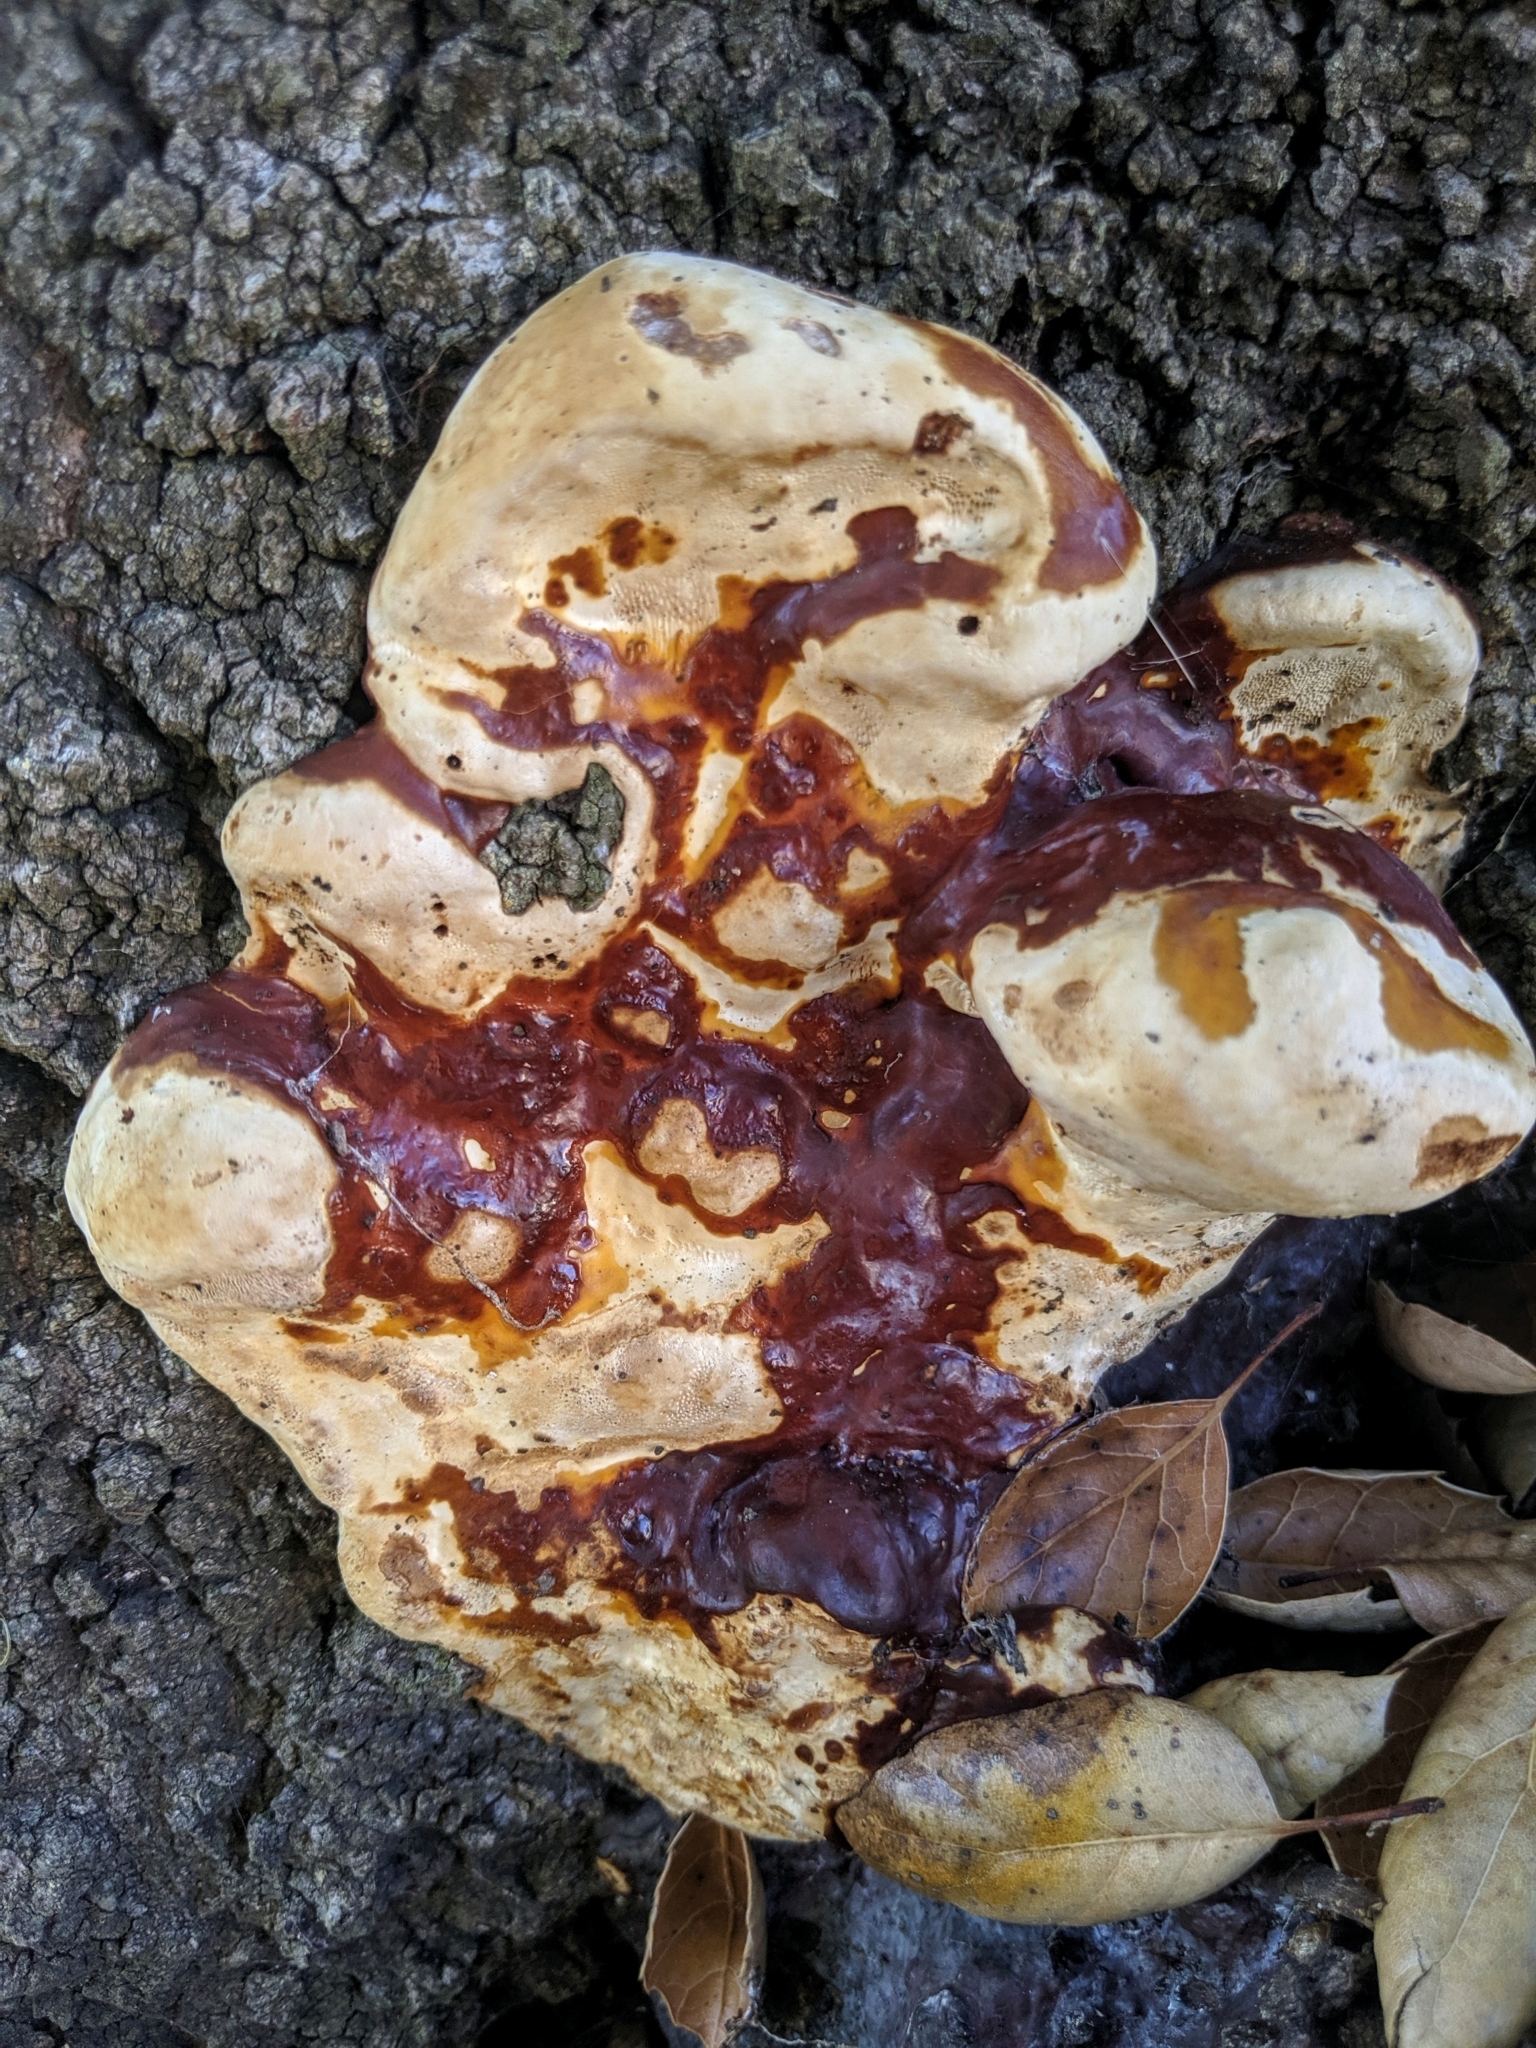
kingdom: Fungi
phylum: Basidiomycota
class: Agaricomycetes
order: Polyporales
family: Polyporaceae
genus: Ganoderma
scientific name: Ganoderma polychromum
